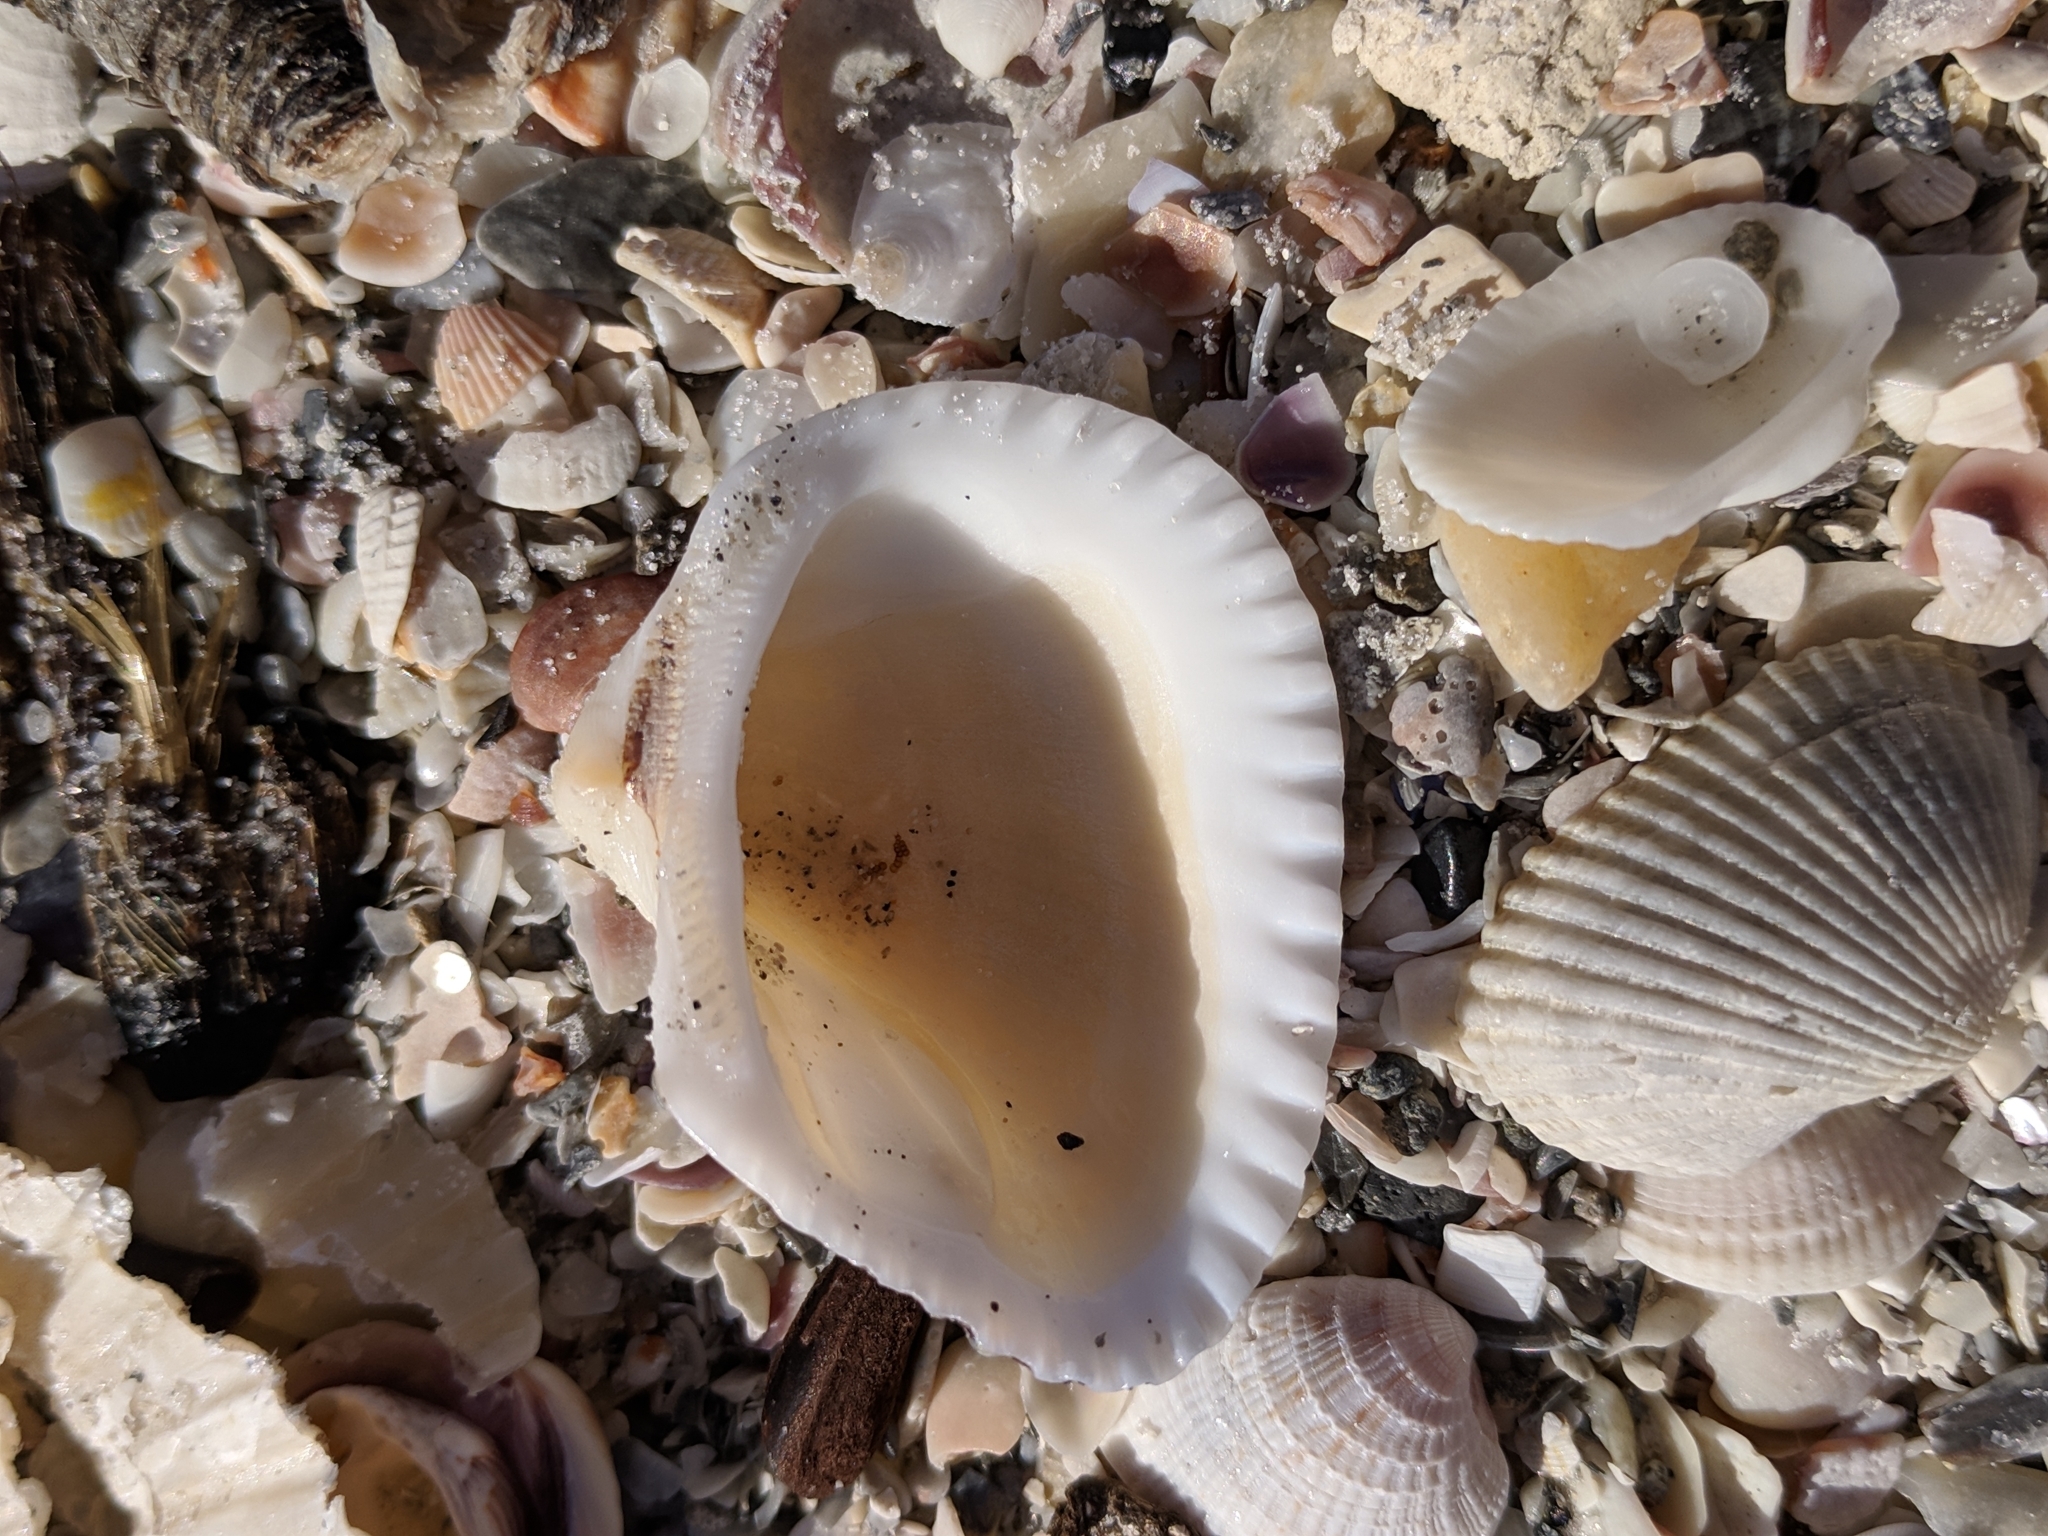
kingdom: Animalia
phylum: Mollusca
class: Bivalvia
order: Arcida
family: Noetiidae
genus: Noetia
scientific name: Noetia ponderosa
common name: Ponderous ark
